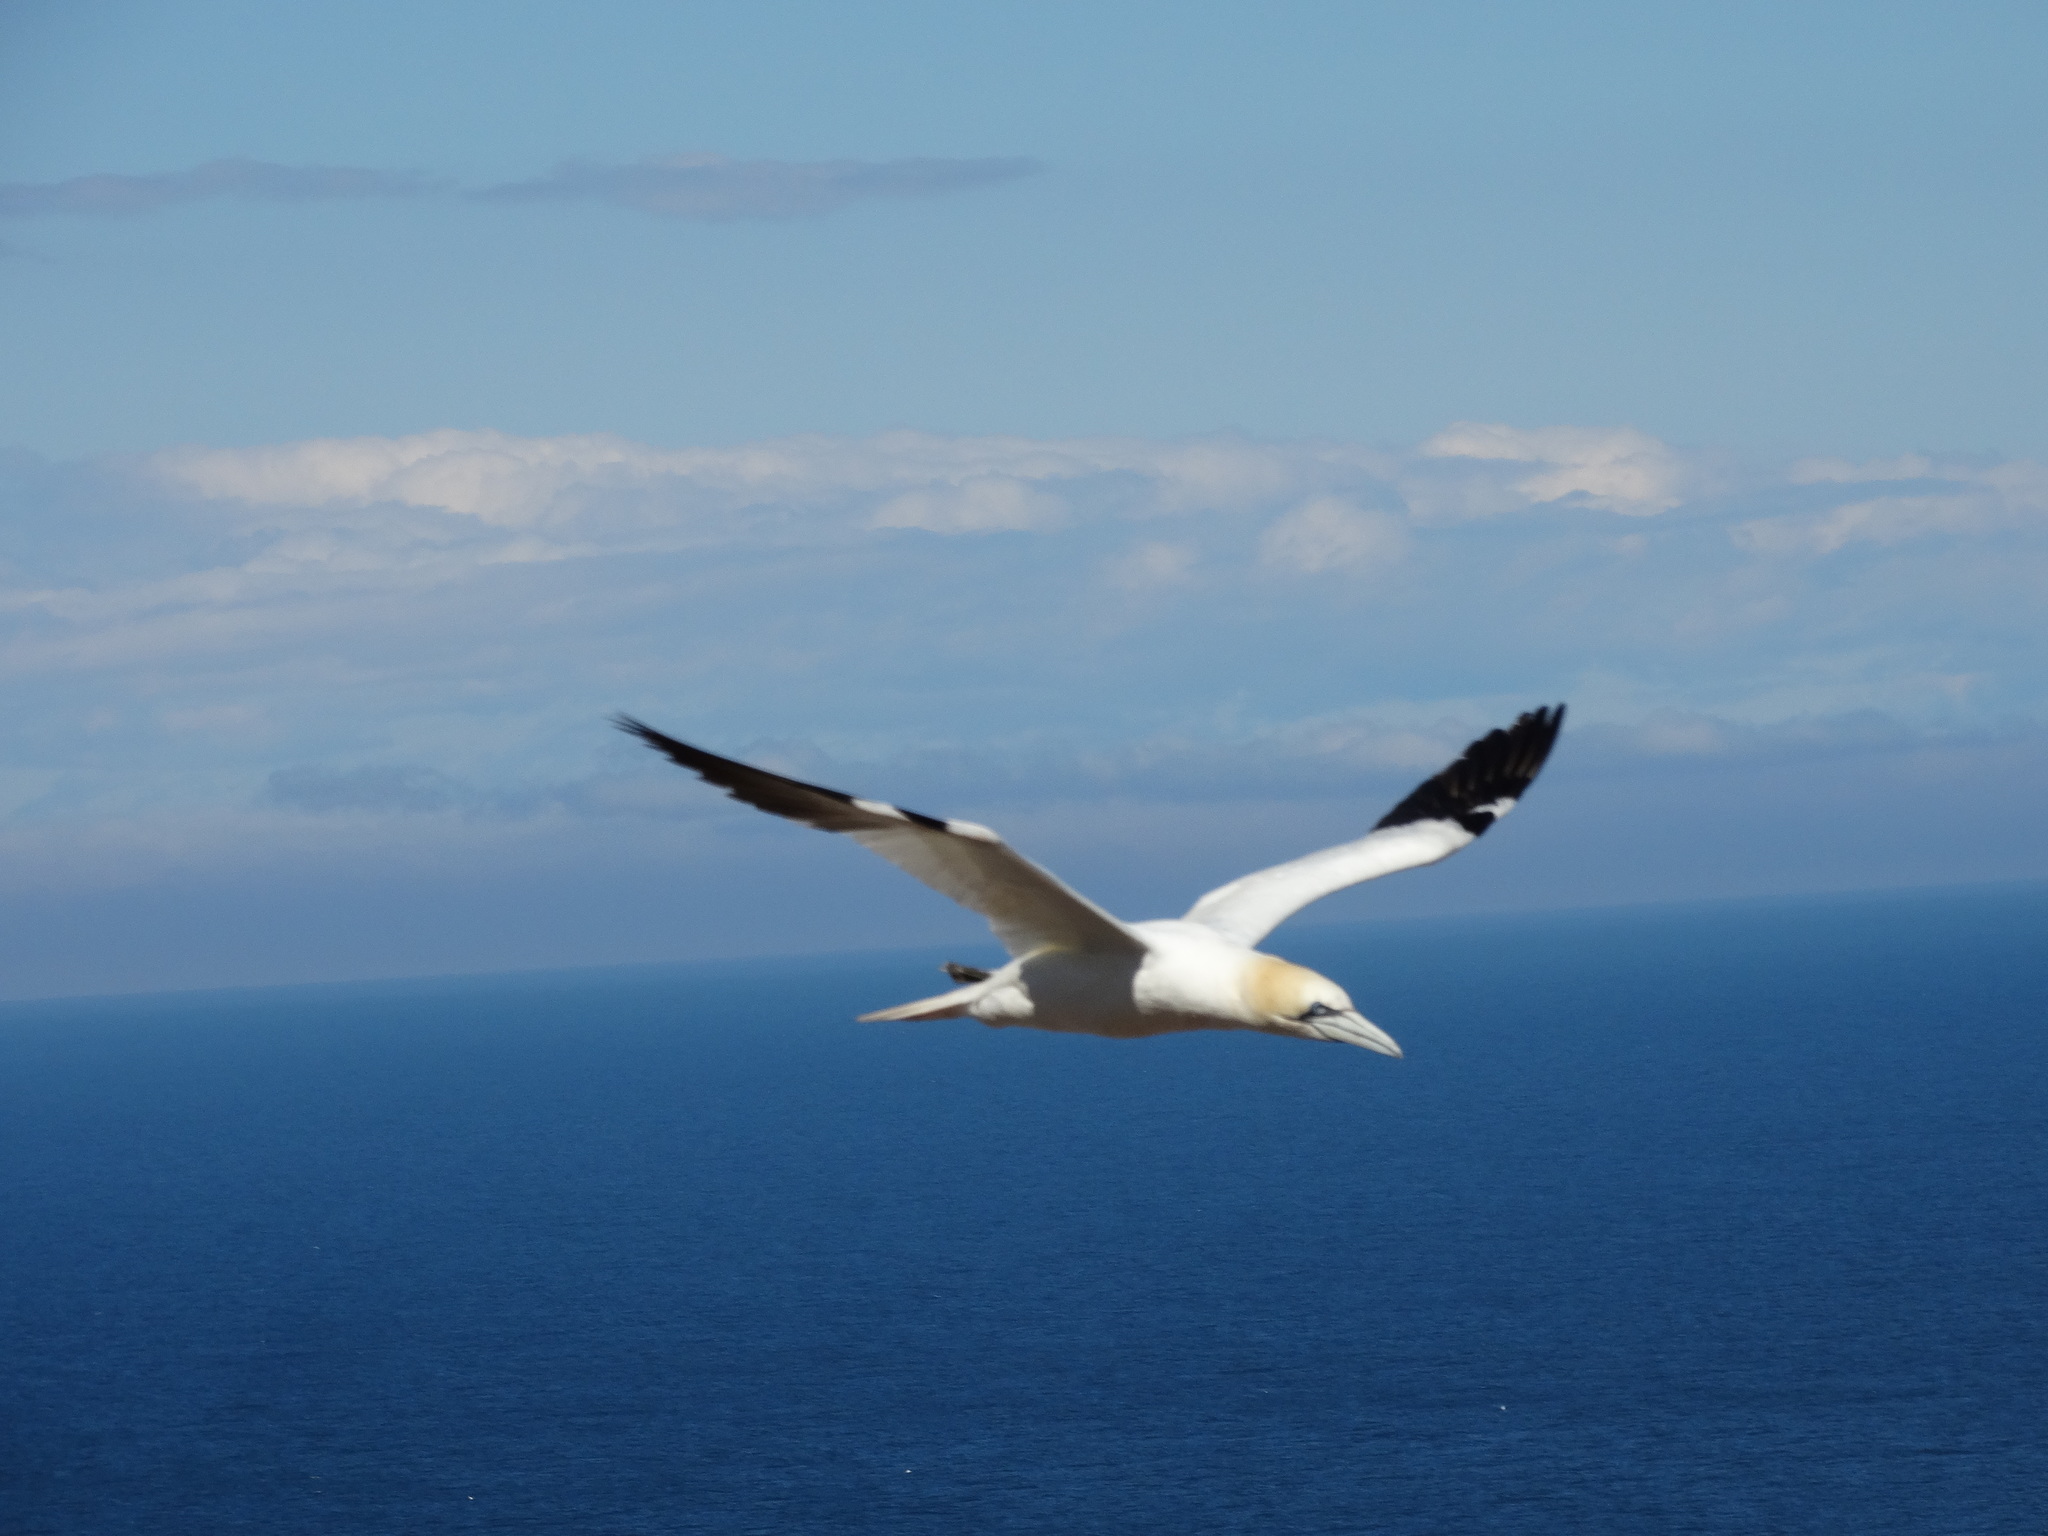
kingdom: Animalia
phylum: Chordata
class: Aves
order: Suliformes
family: Sulidae
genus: Morus
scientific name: Morus bassanus
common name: Northern gannet
